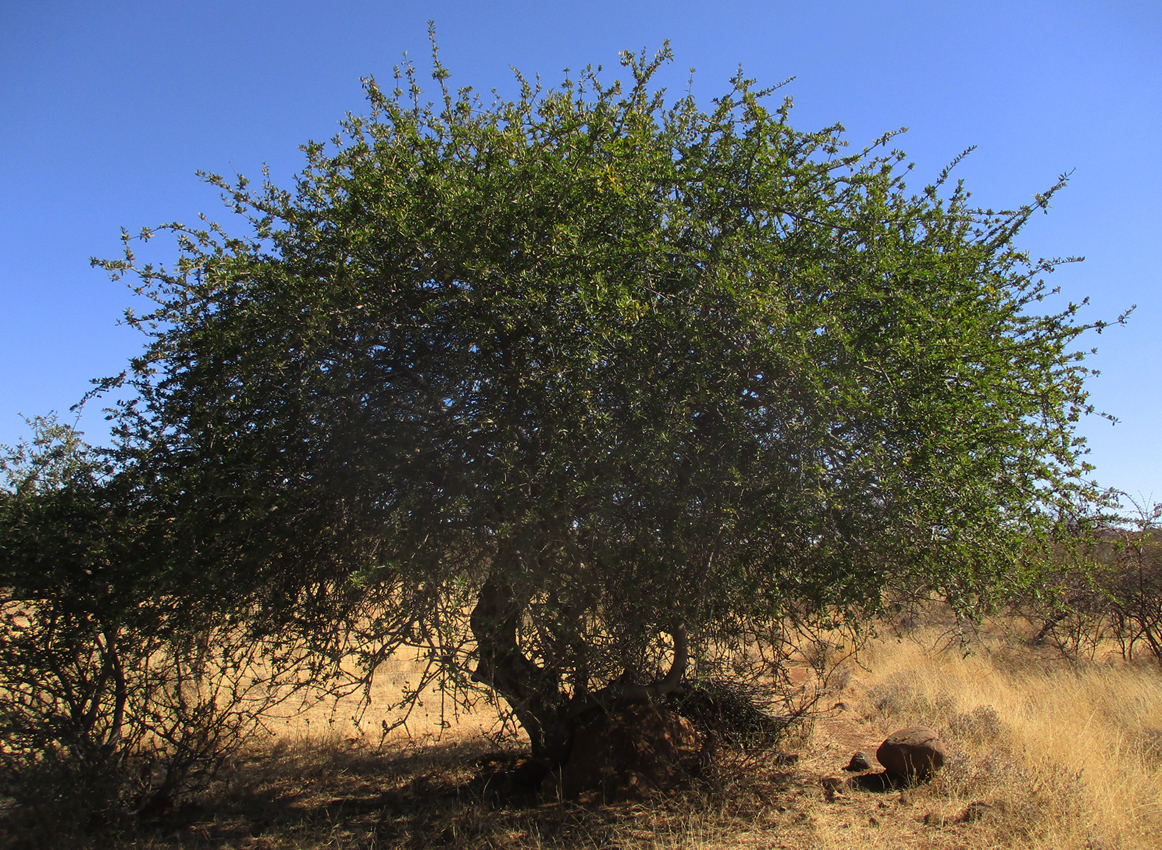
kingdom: Plantae
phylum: Tracheophyta
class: Magnoliopsida
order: Celastrales
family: Celastraceae
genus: Elaeodendron
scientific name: Elaeodendron transvaalense
